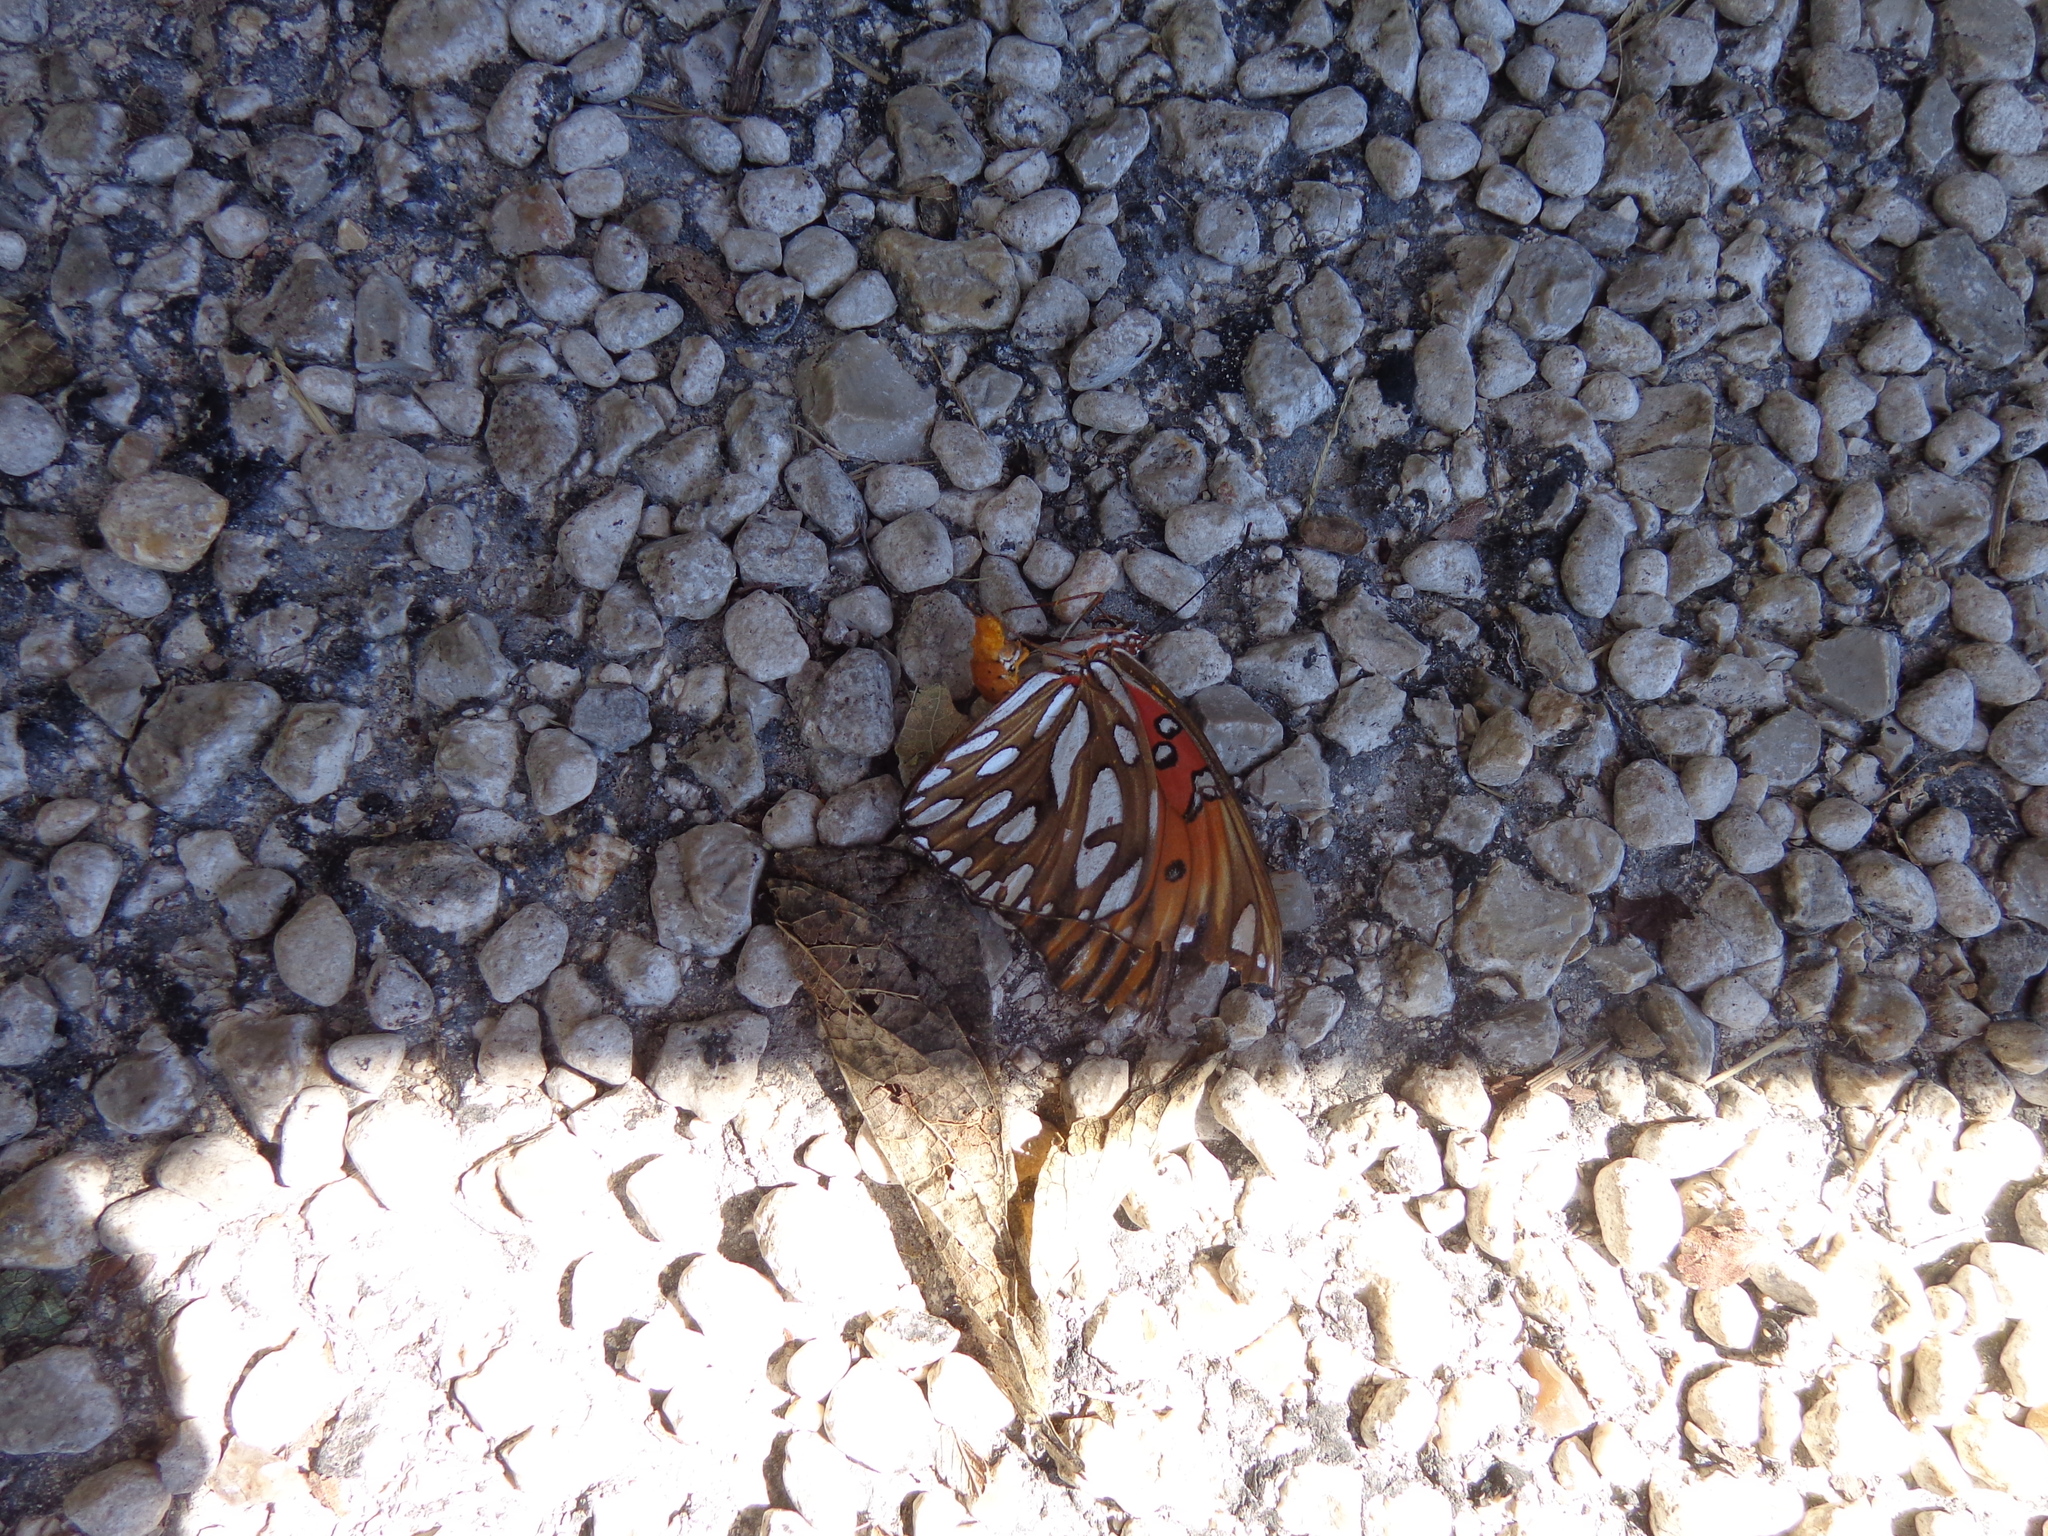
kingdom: Animalia
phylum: Arthropoda
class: Insecta
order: Lepidoptera
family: Nymphalidae
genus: Dione
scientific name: Dione vanillae
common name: Gulf fritillary
